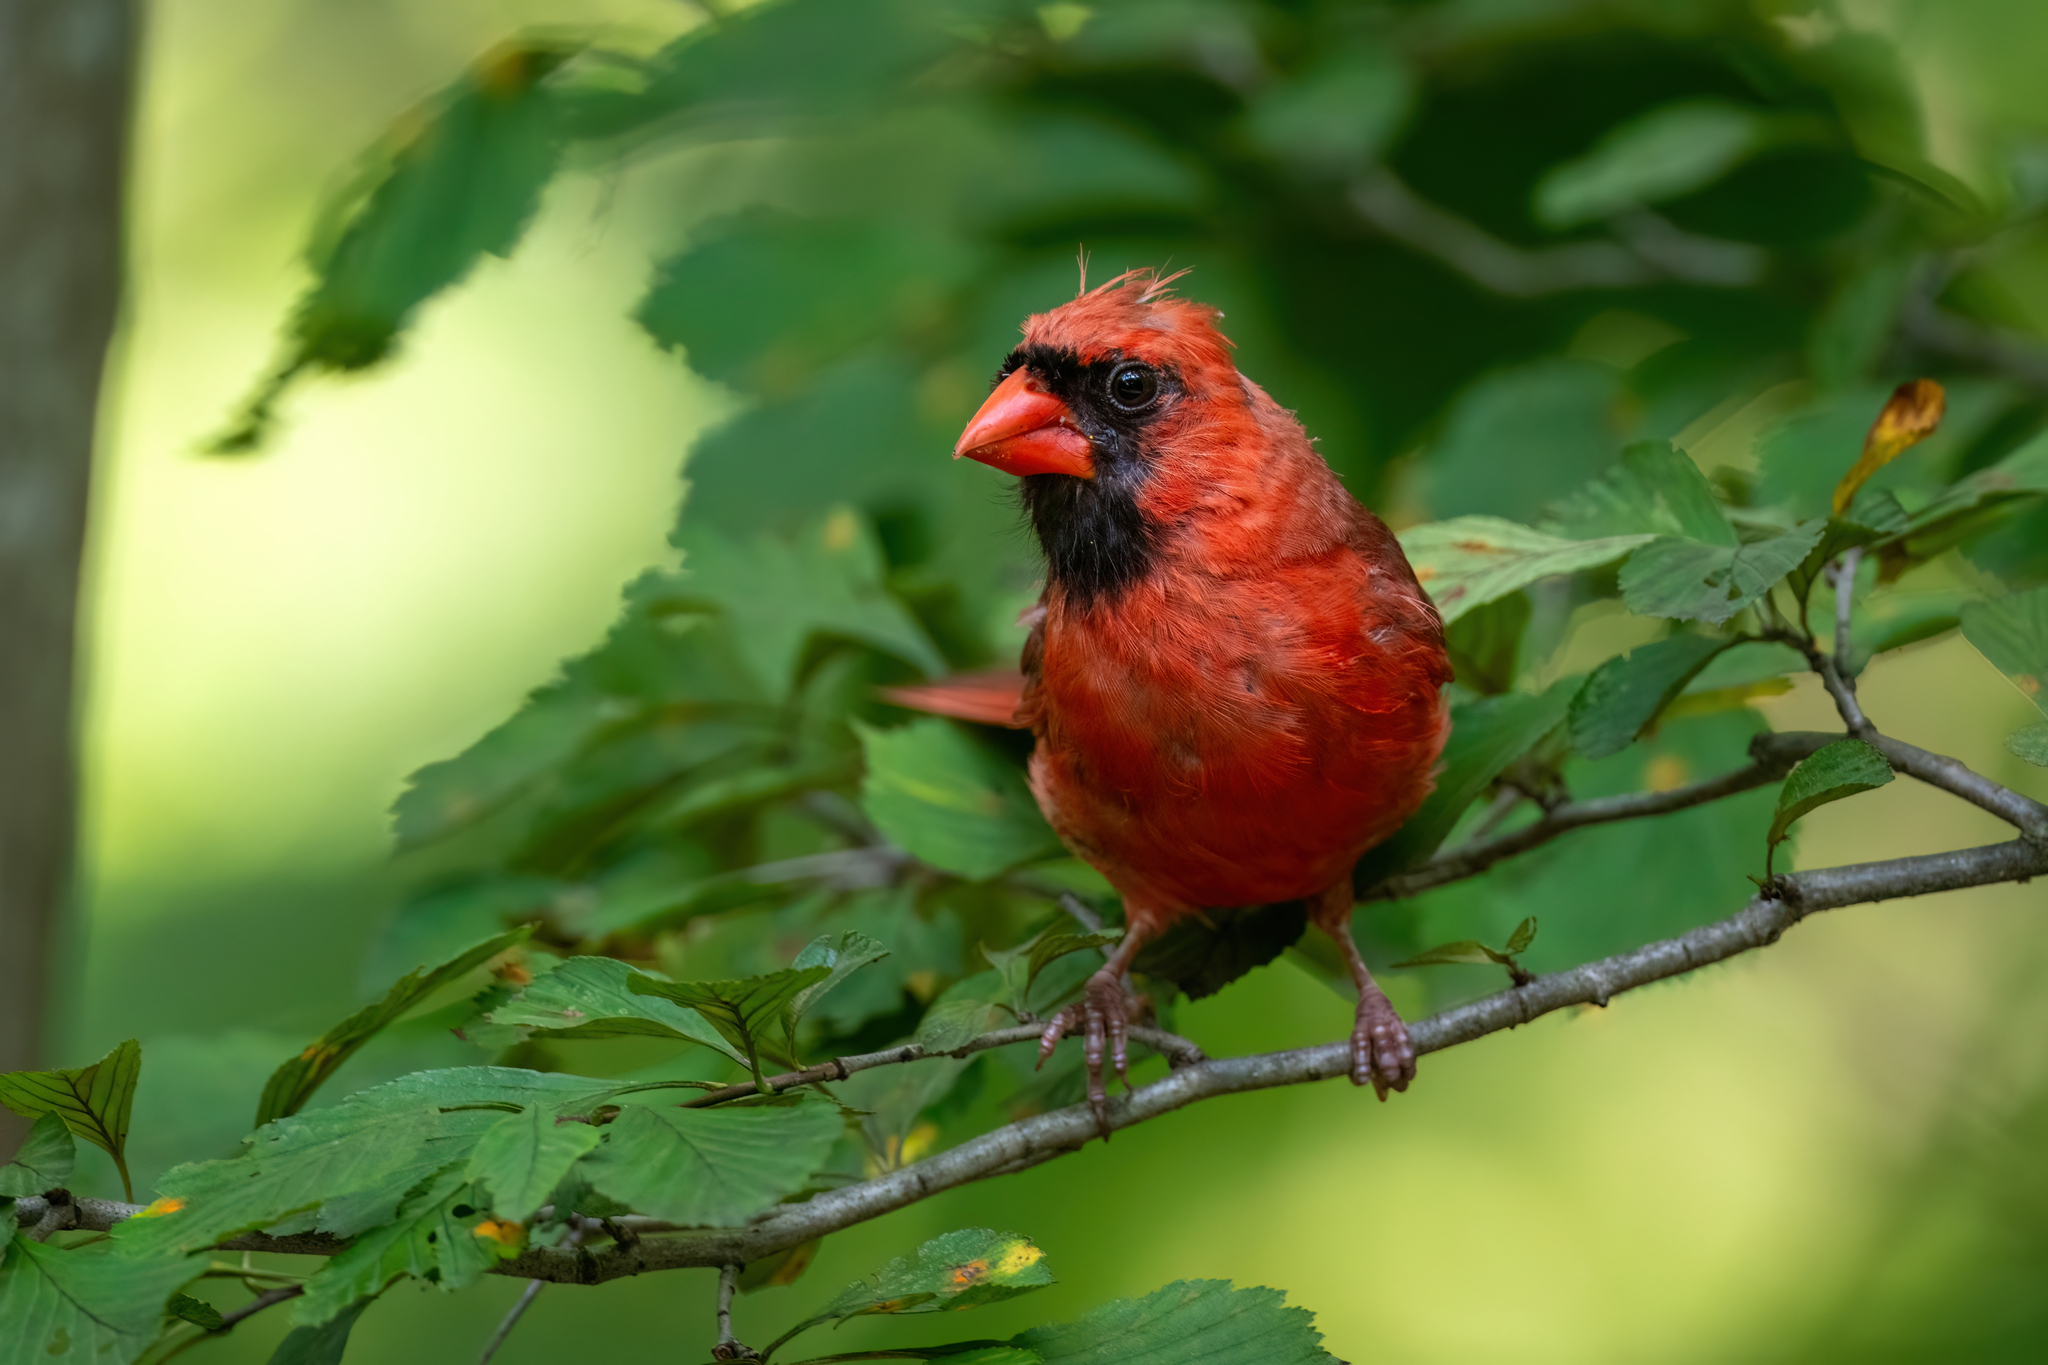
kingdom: Animalia
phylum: Chordata
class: Aves
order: Passeriformes
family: Cardinalidae
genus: Cardinalis
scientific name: Cardinalis cardinalis
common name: Northern cardinal
